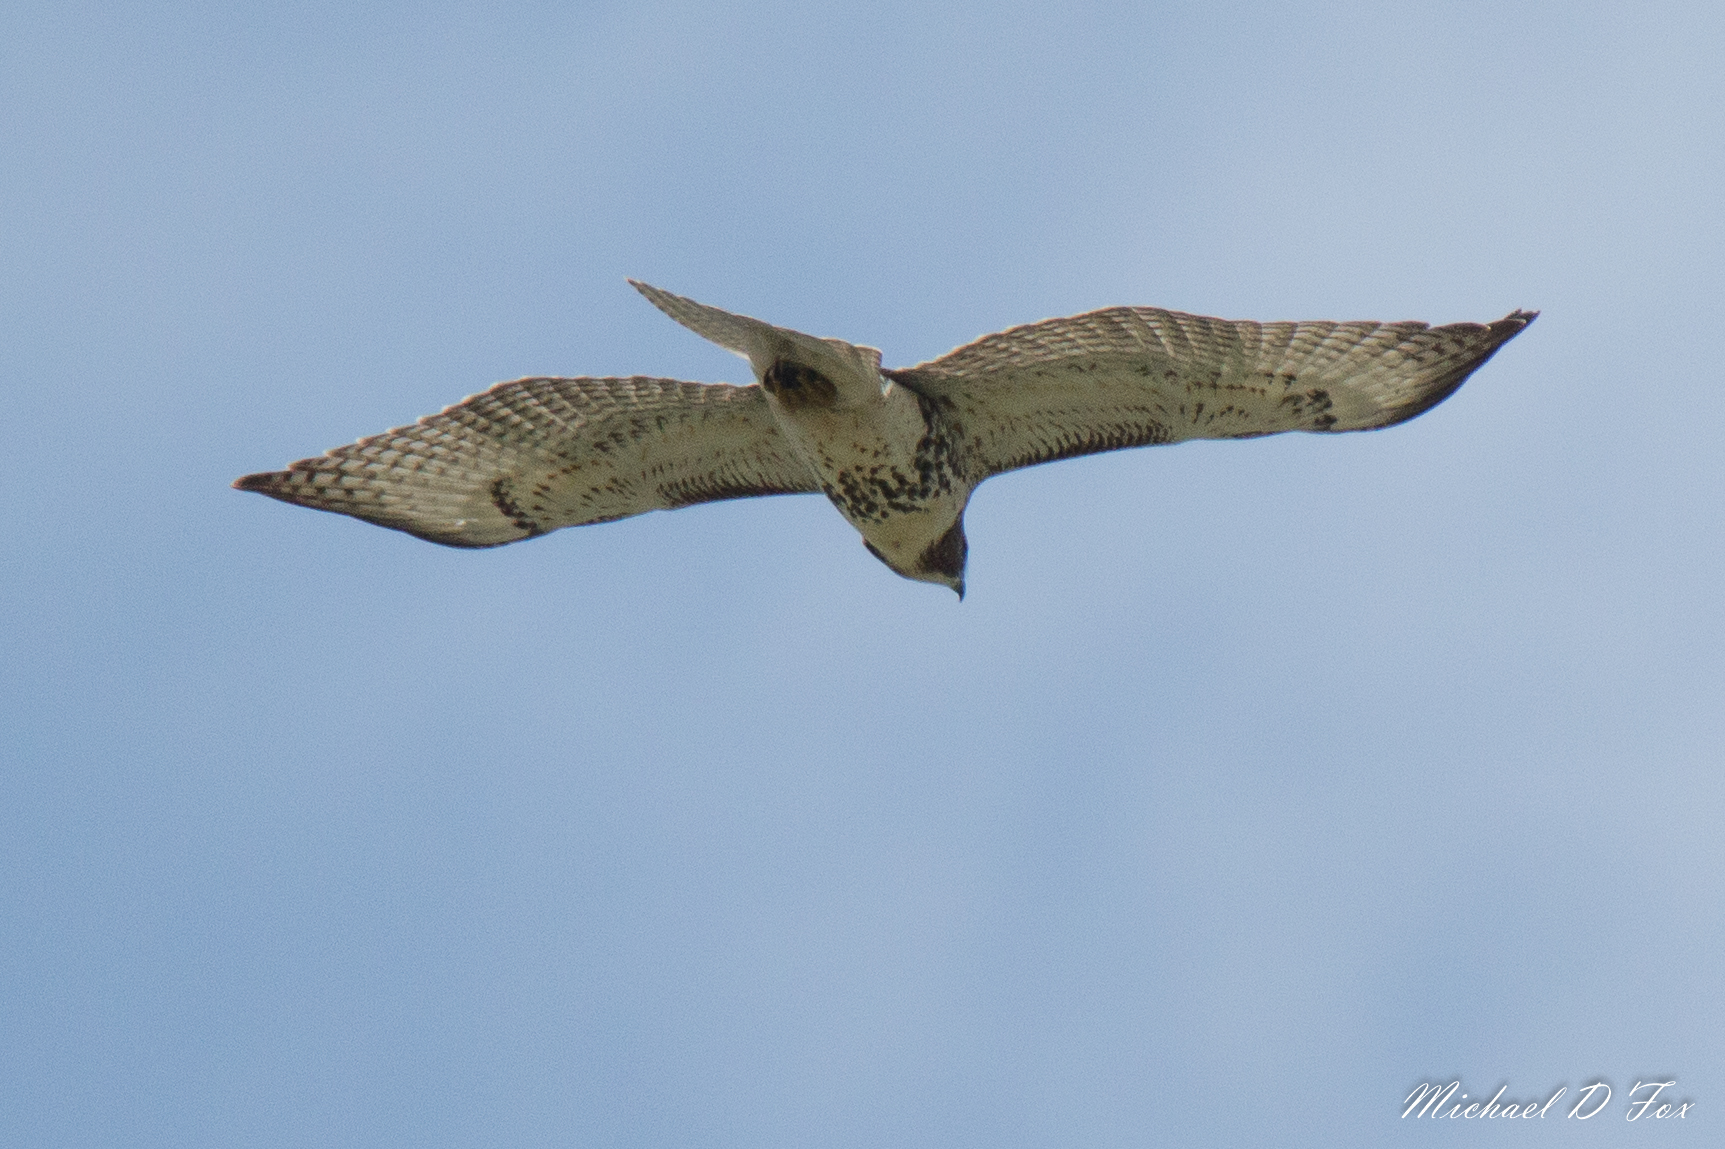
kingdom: Animalia
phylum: Chordata
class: Aves
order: Accipitriformes
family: Accipitridae
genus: Buteo
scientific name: Buteo jamaicensis
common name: Red-tailed hawk
